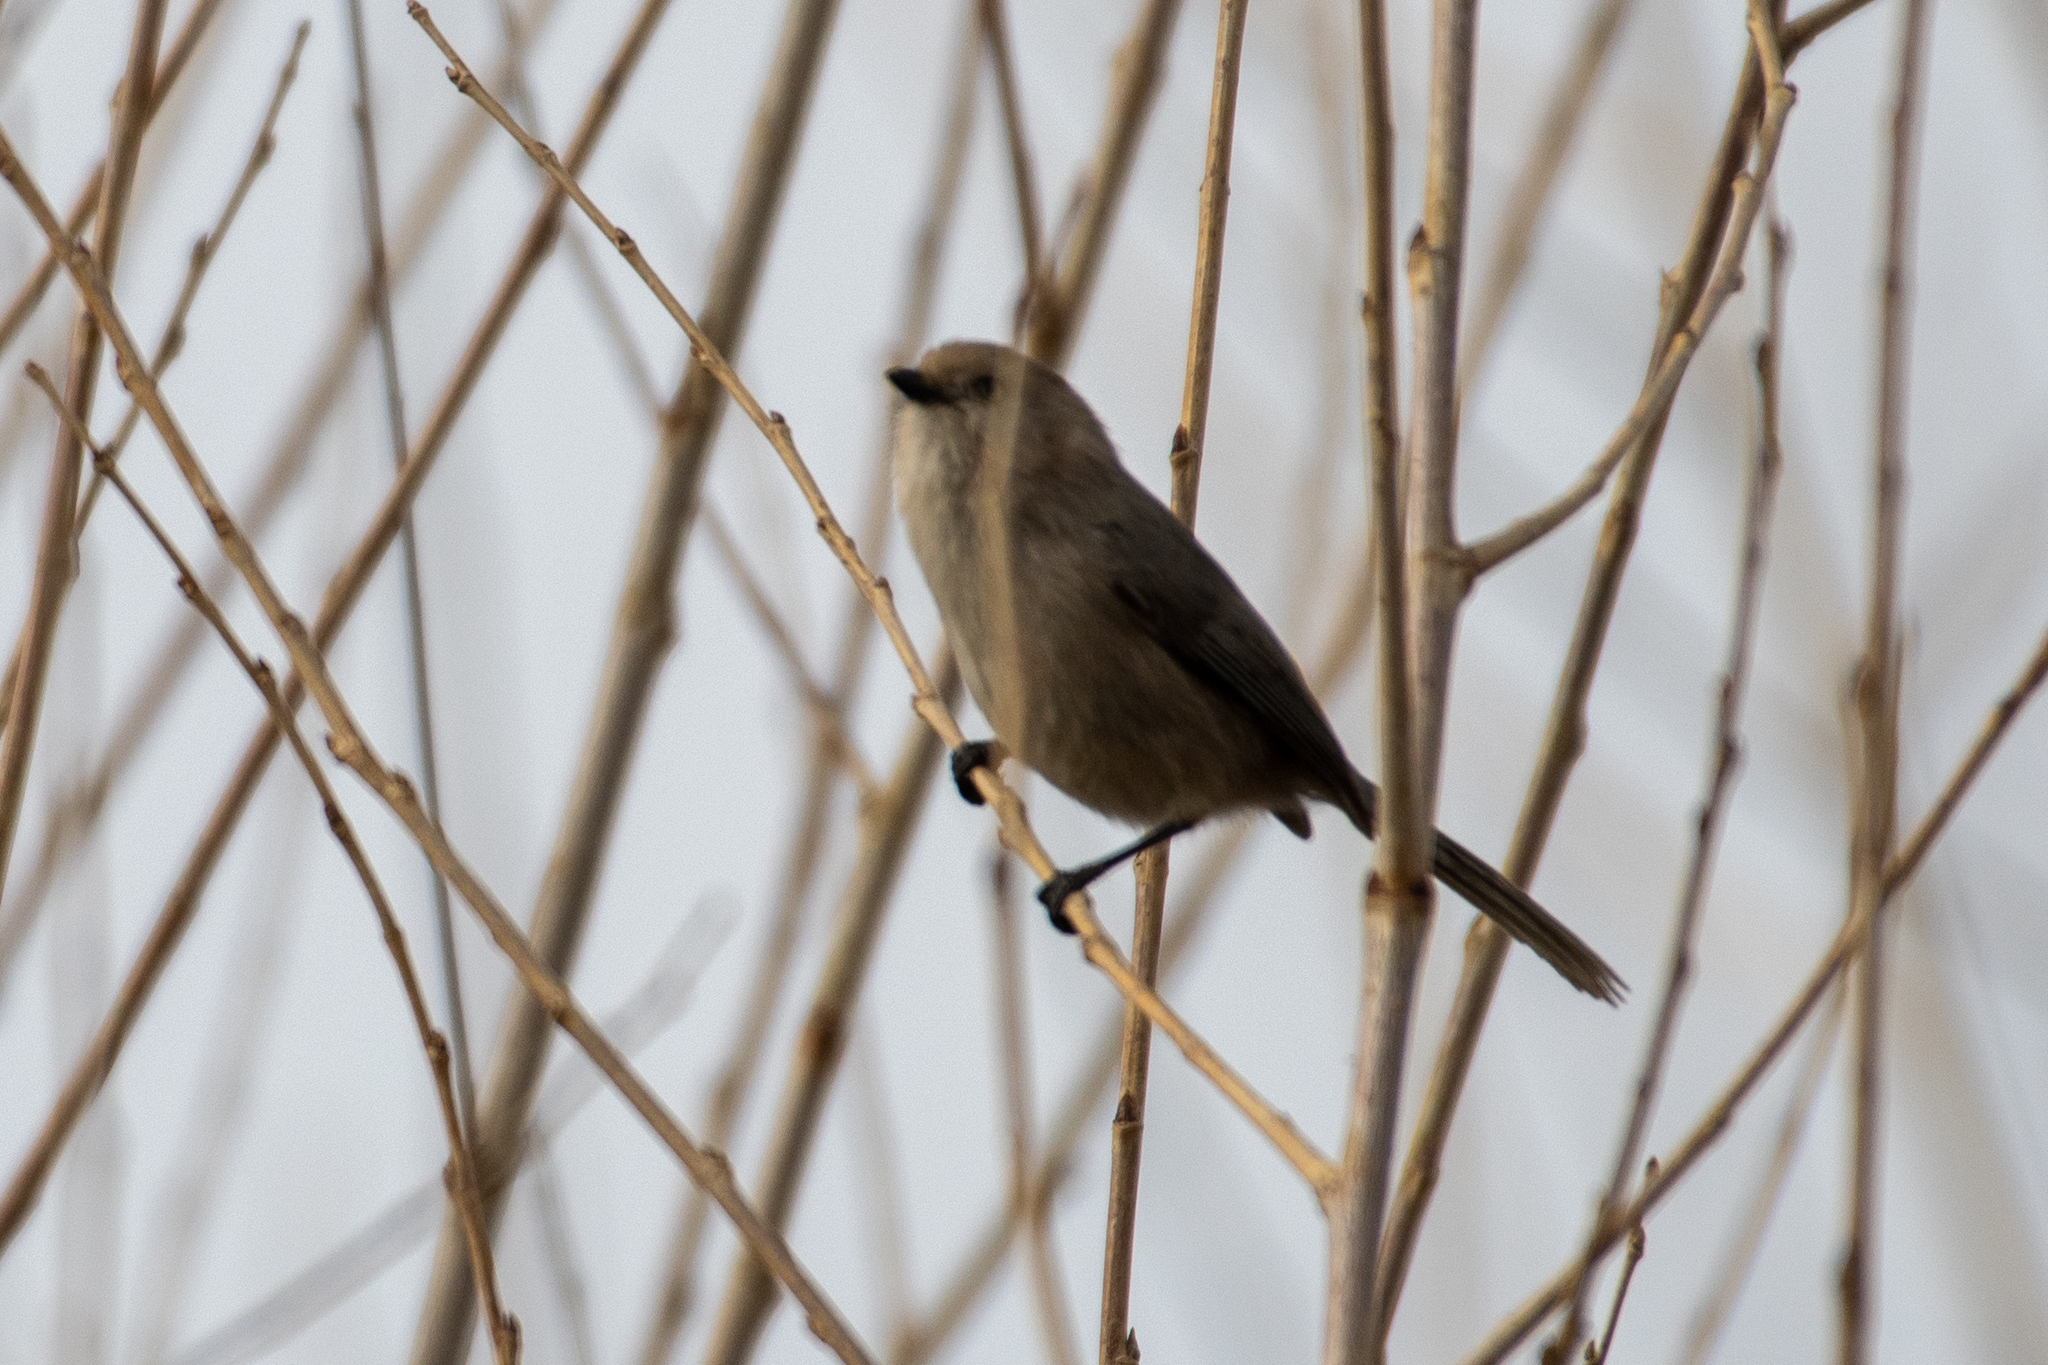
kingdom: Animalia
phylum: Chordata
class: Aves
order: Passeriformes
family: Aegithalidae
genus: Psaltriparus
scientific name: Psaltriparus minimus
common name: American bushtit
